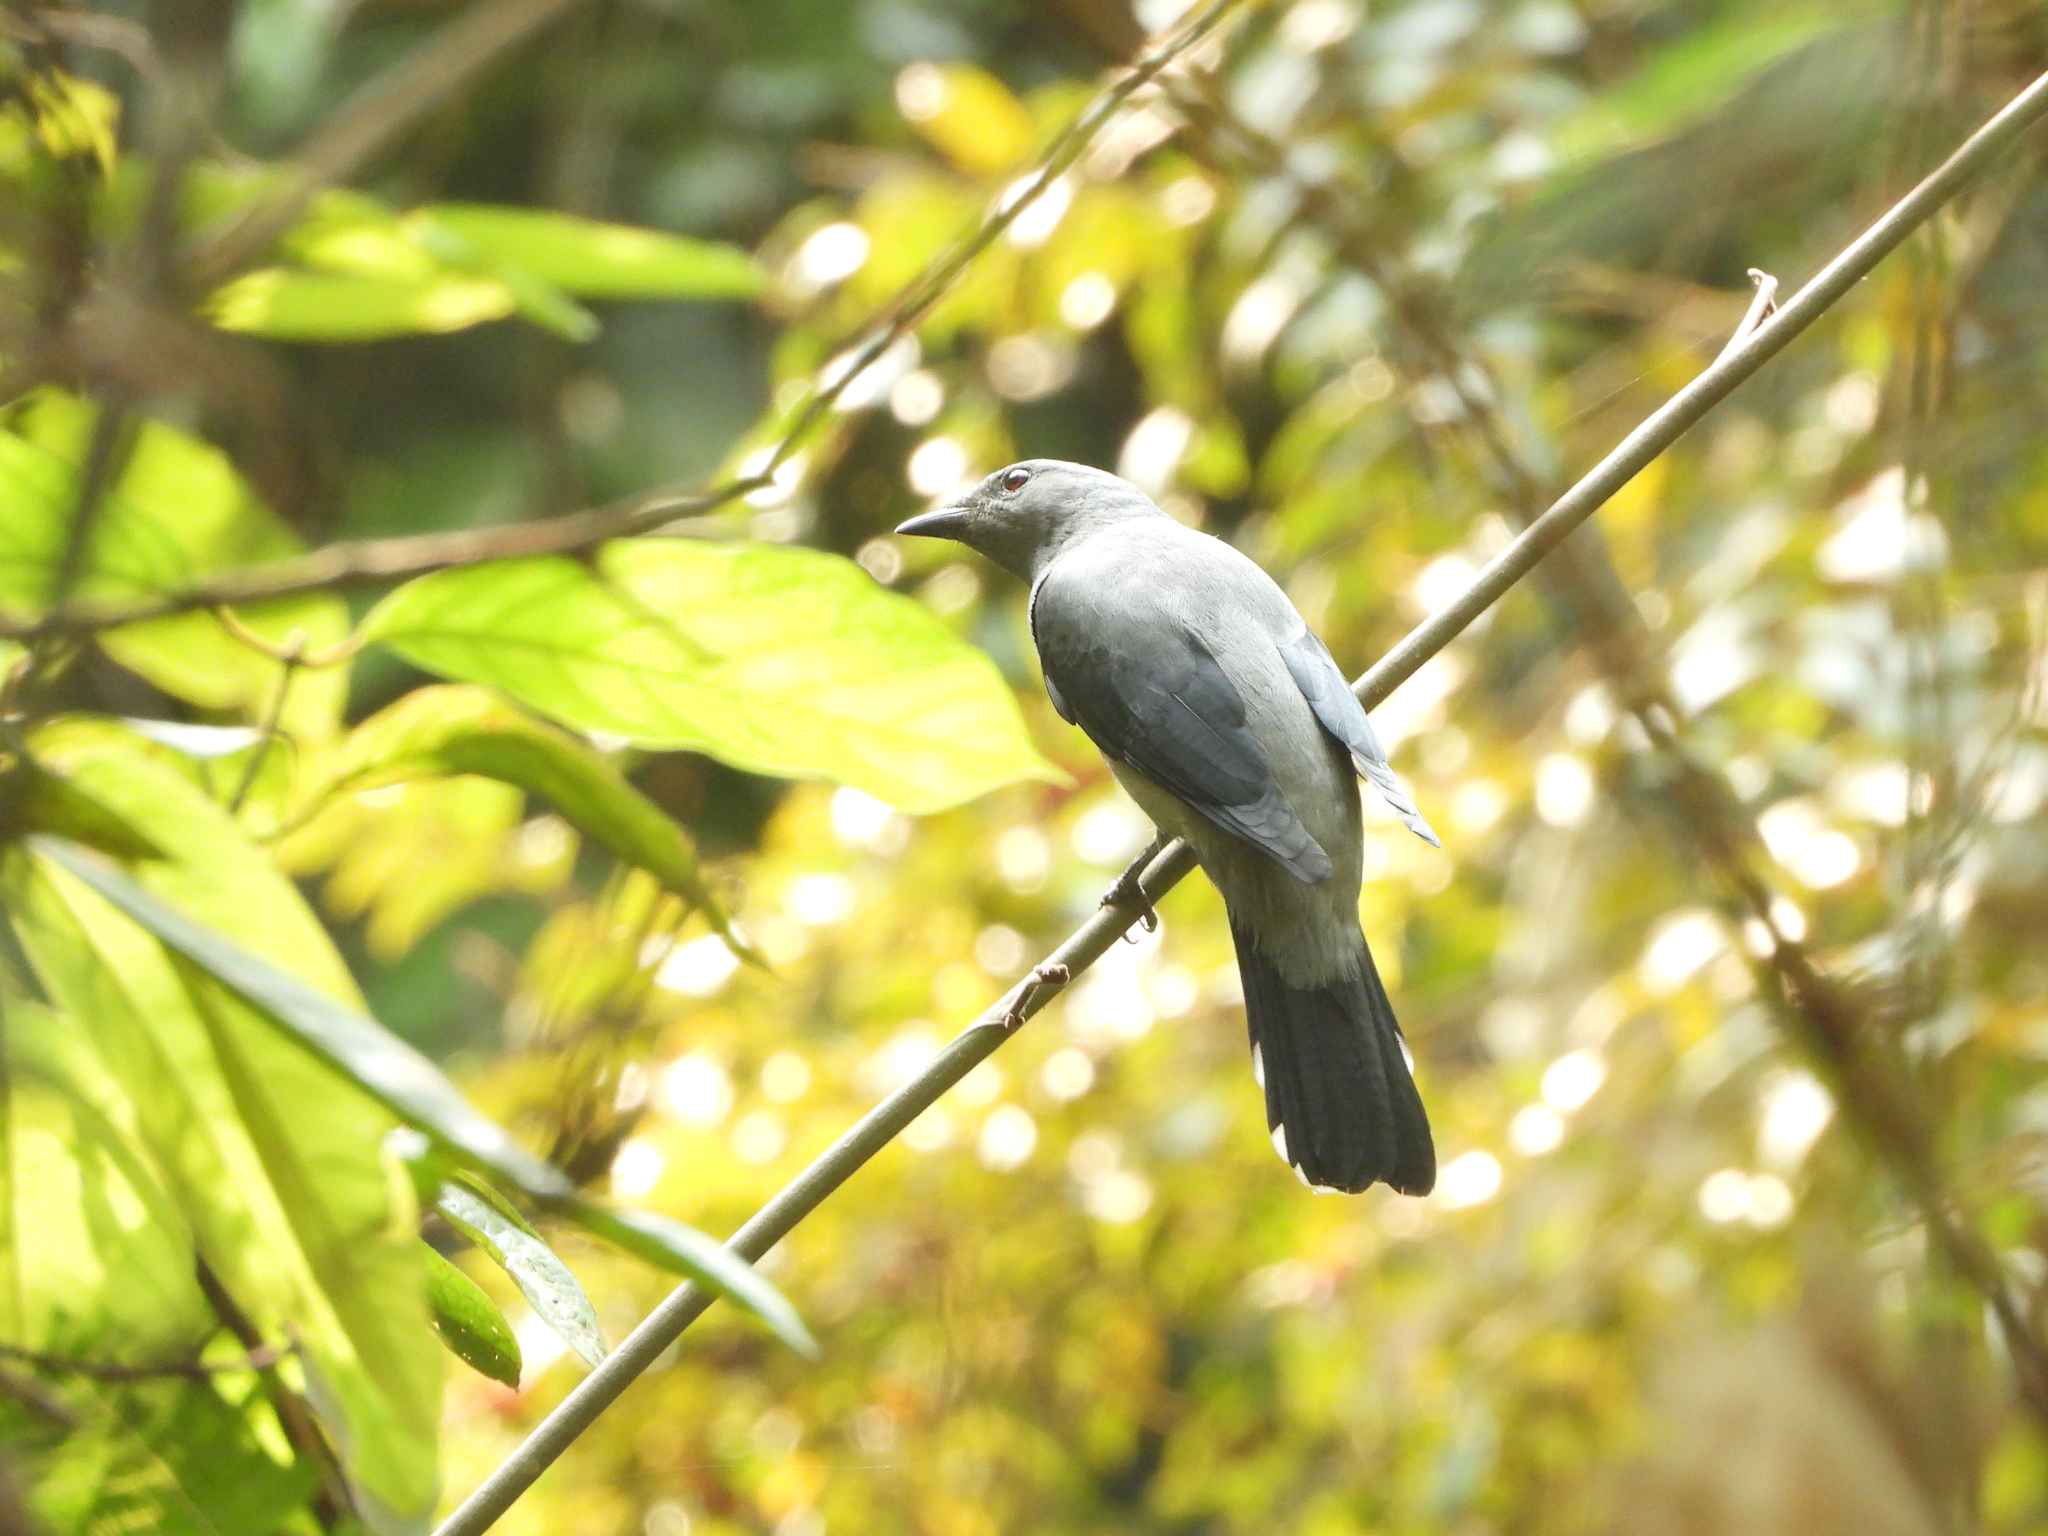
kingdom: Animalia
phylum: Chordata
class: Aves
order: Passeriformes
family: Campephagidae
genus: Coracina
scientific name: Coracina melaschistos
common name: Black-winged cuckooshrike
